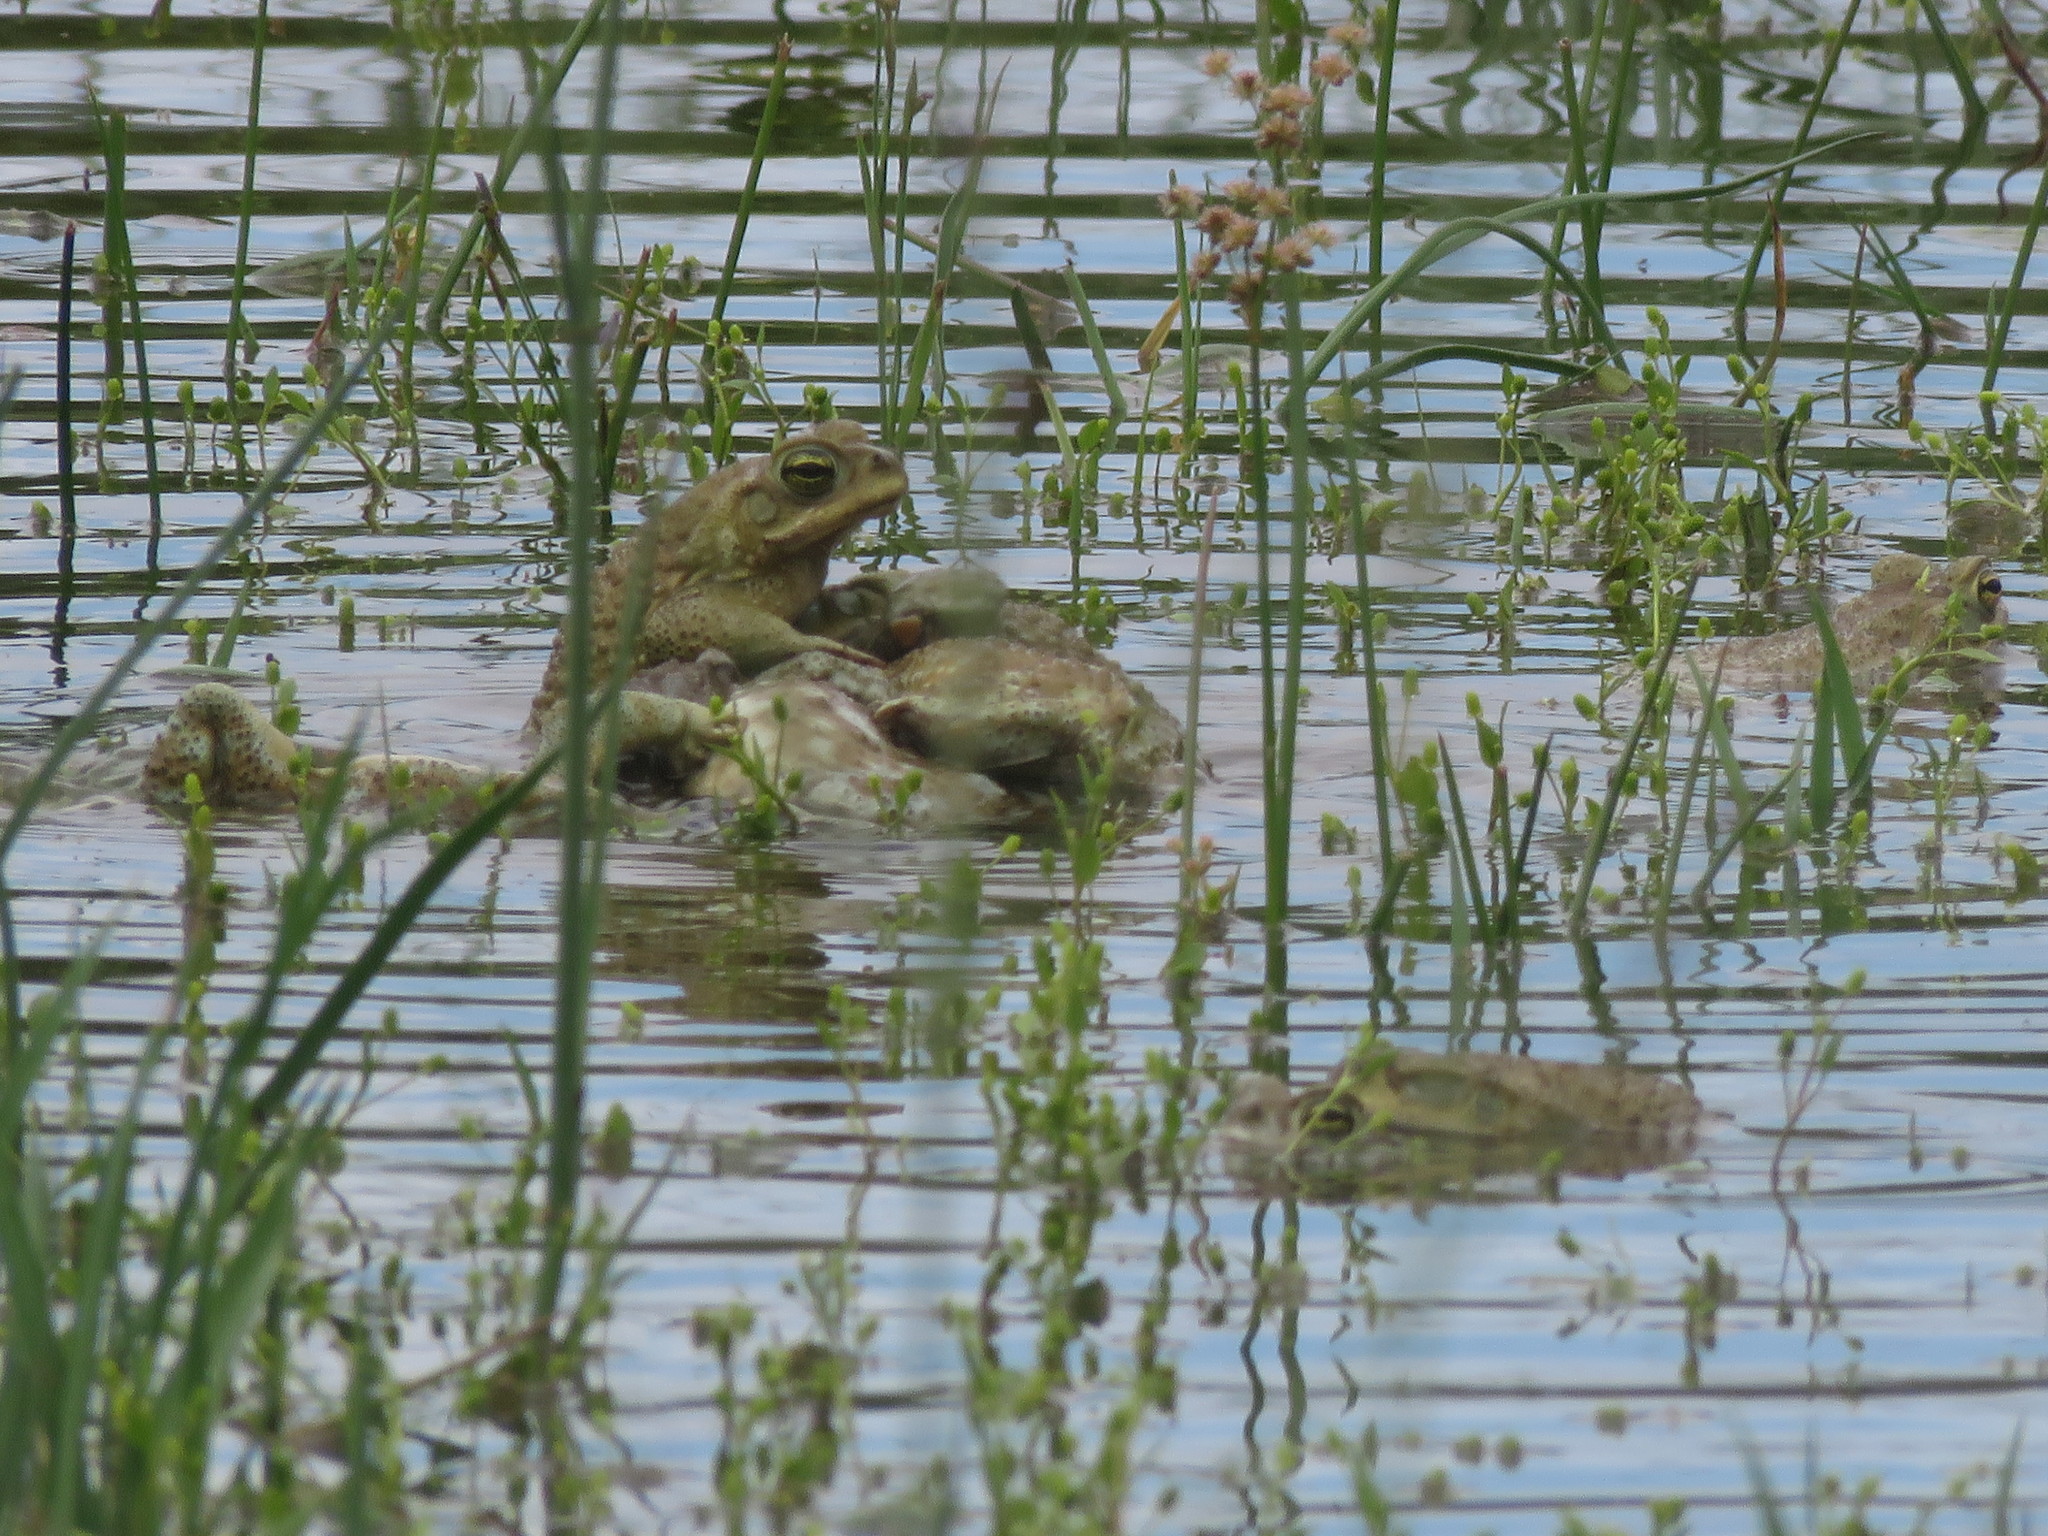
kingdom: Animalia
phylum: Chordata
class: Amphibia
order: Anura
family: Bufonidae
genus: Rhinella
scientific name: Rhinella arenarum
